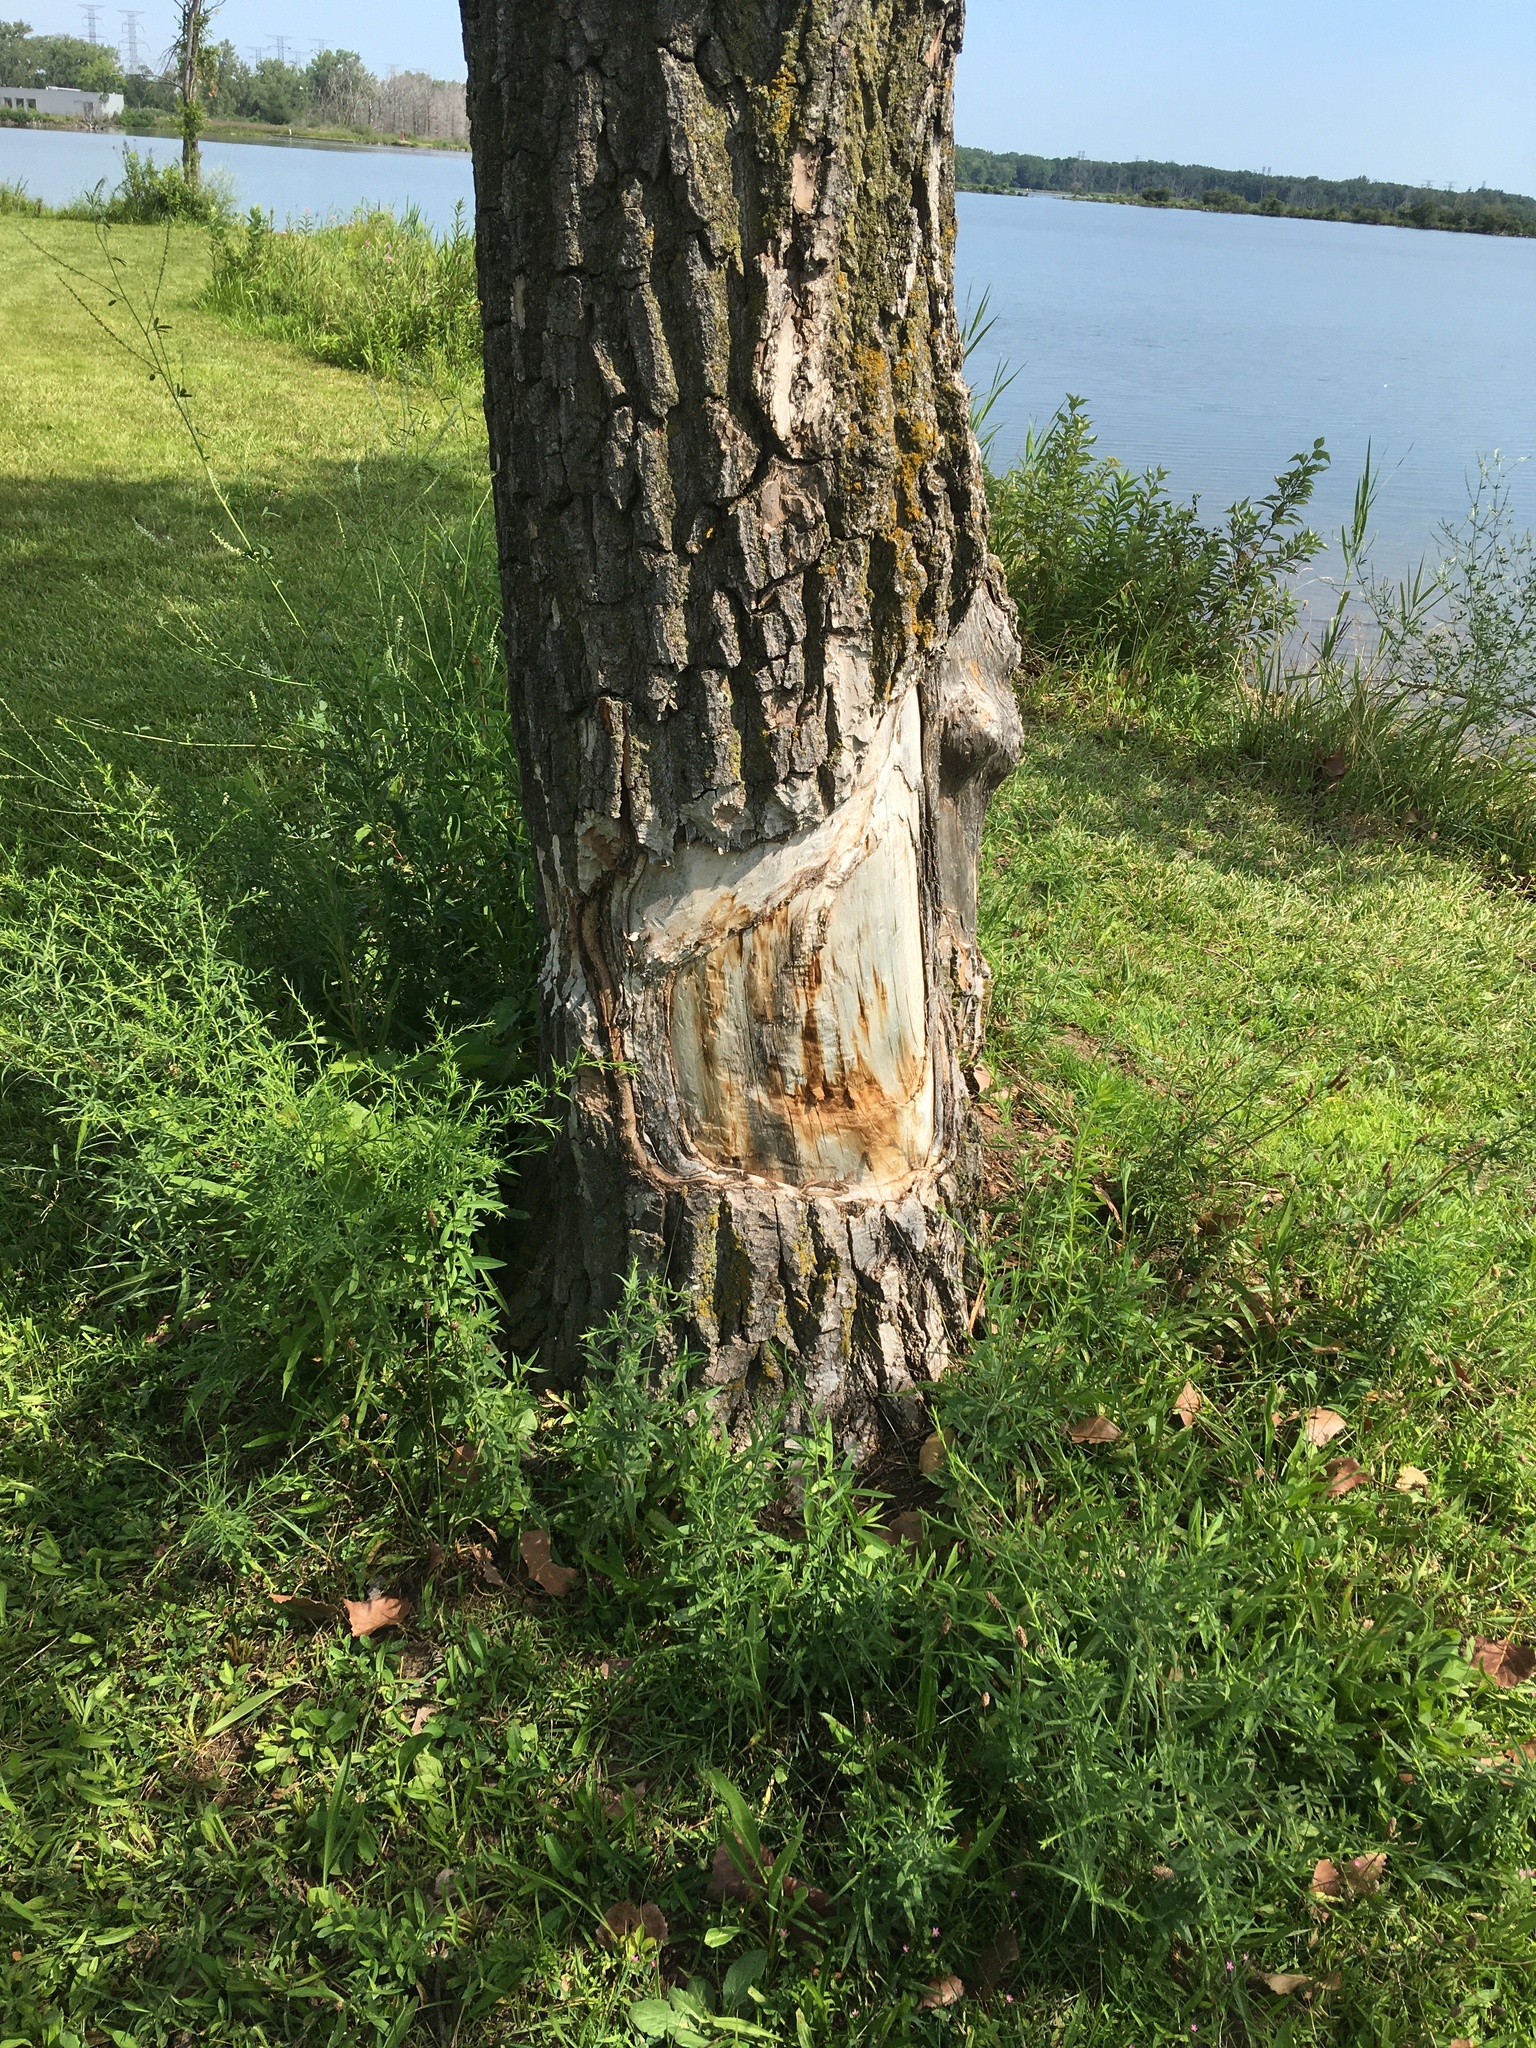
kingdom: Animalia
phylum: Chordata
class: Mammalia
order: Rodentia
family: Castoridae
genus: Castor
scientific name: Castor canadensis
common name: American beaver
